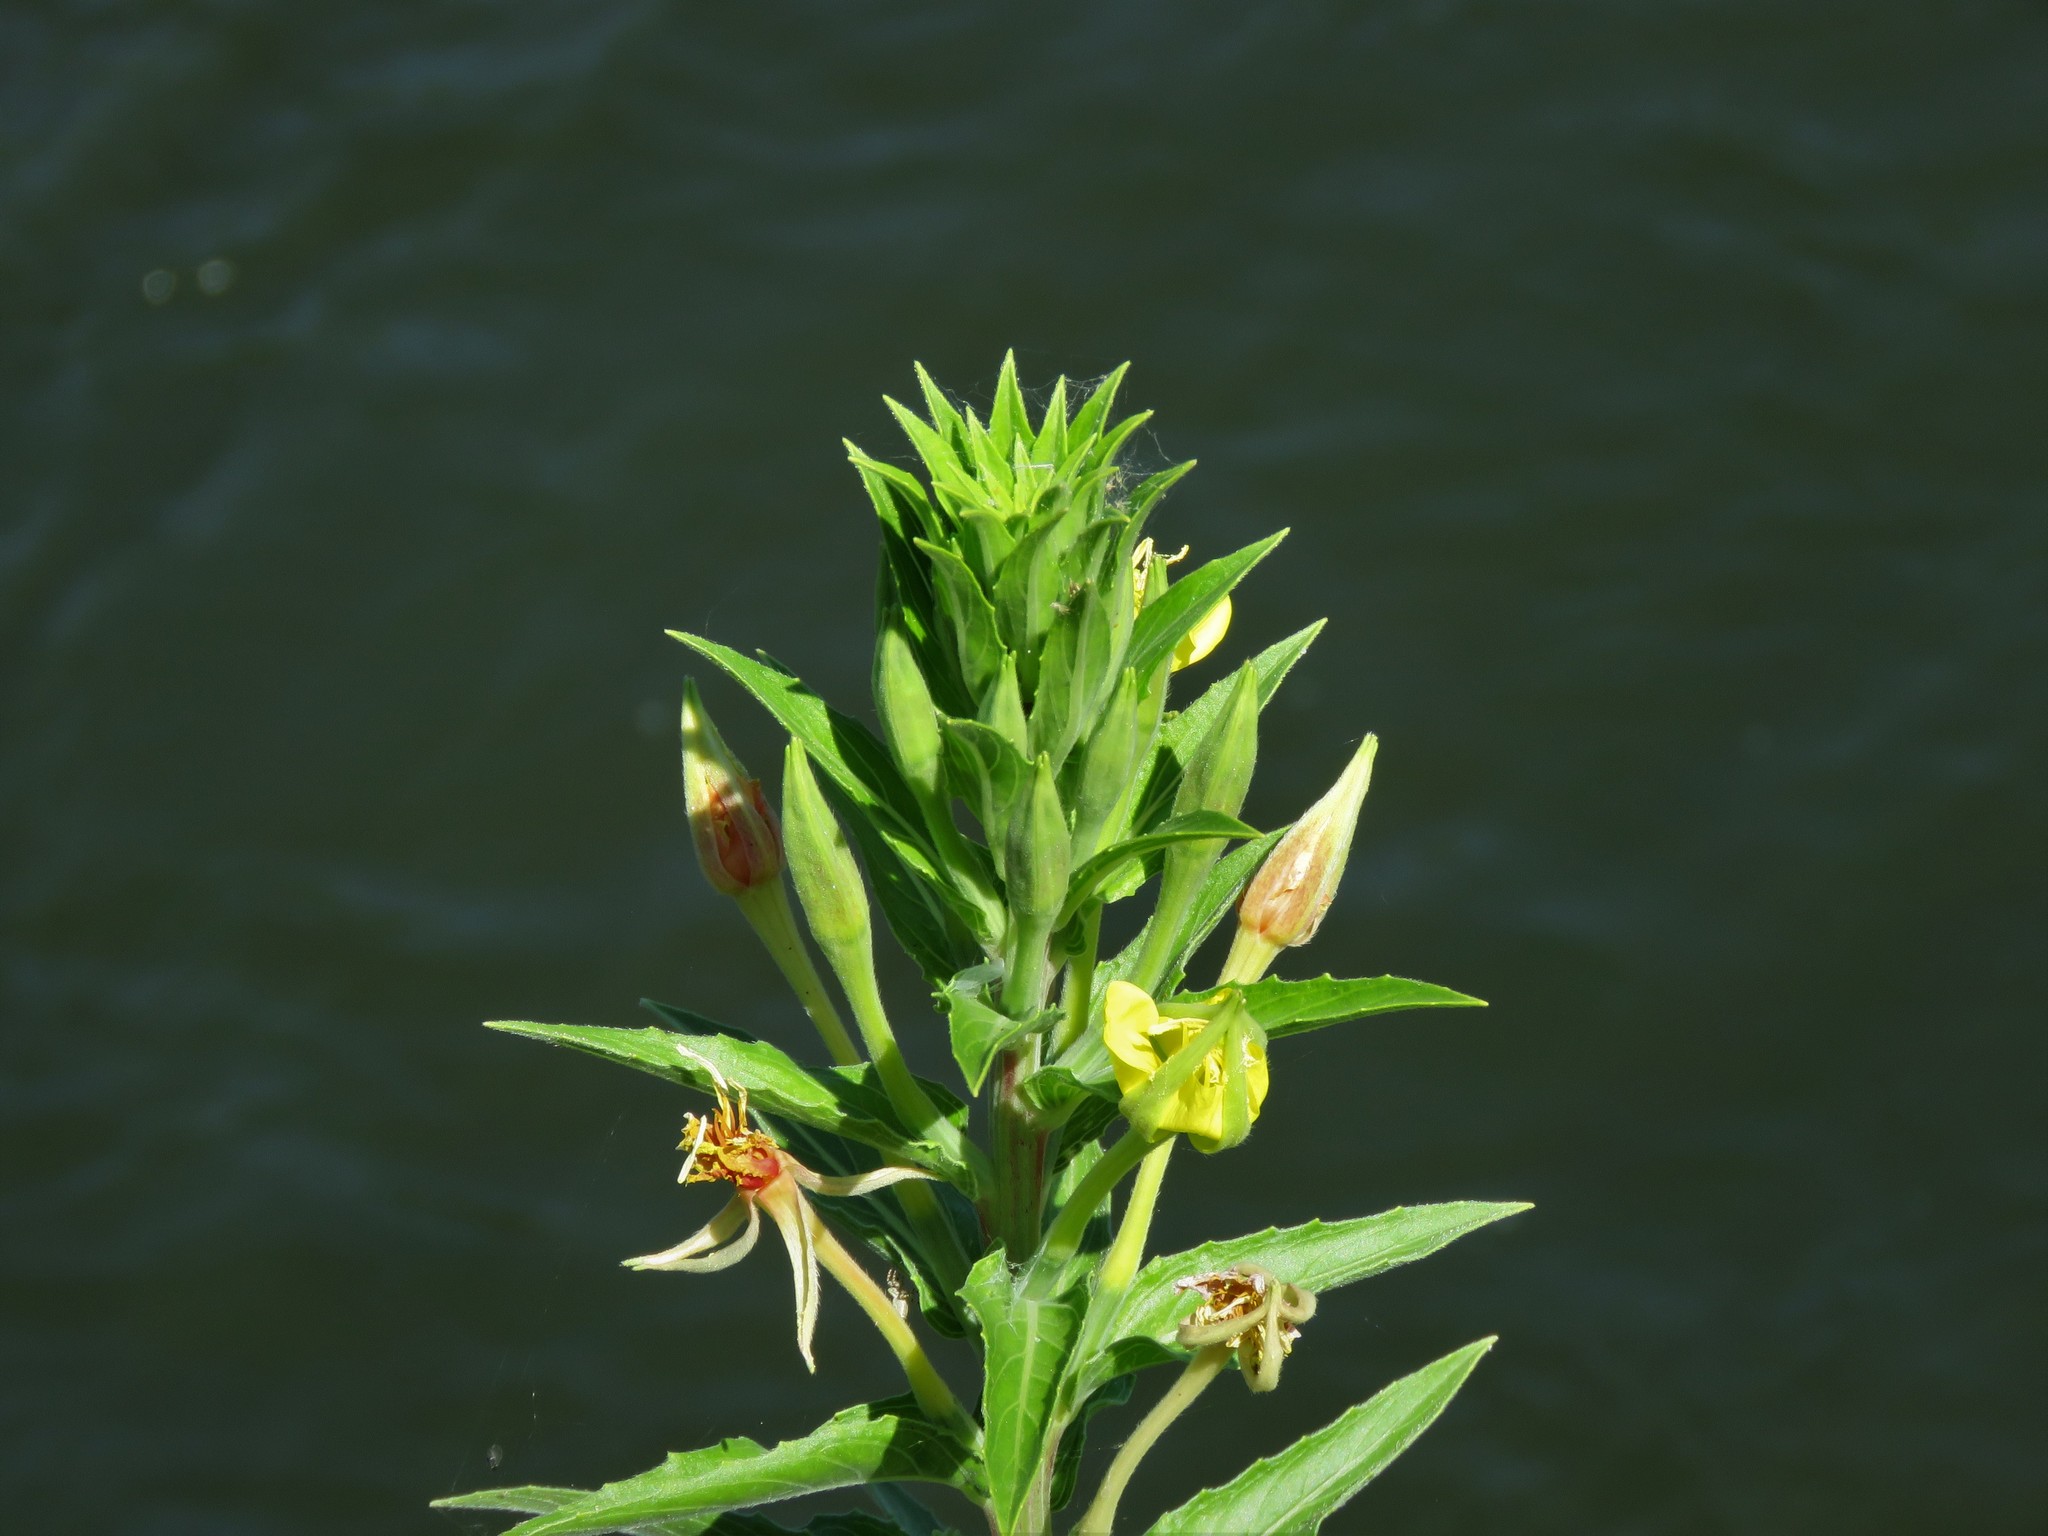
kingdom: Plantae
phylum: Tracheophyta
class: Magnoliopsida
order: Myrtales
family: Onagraceae
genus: Oenothera
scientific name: Oenothera biennis
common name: Common evening-primrose
